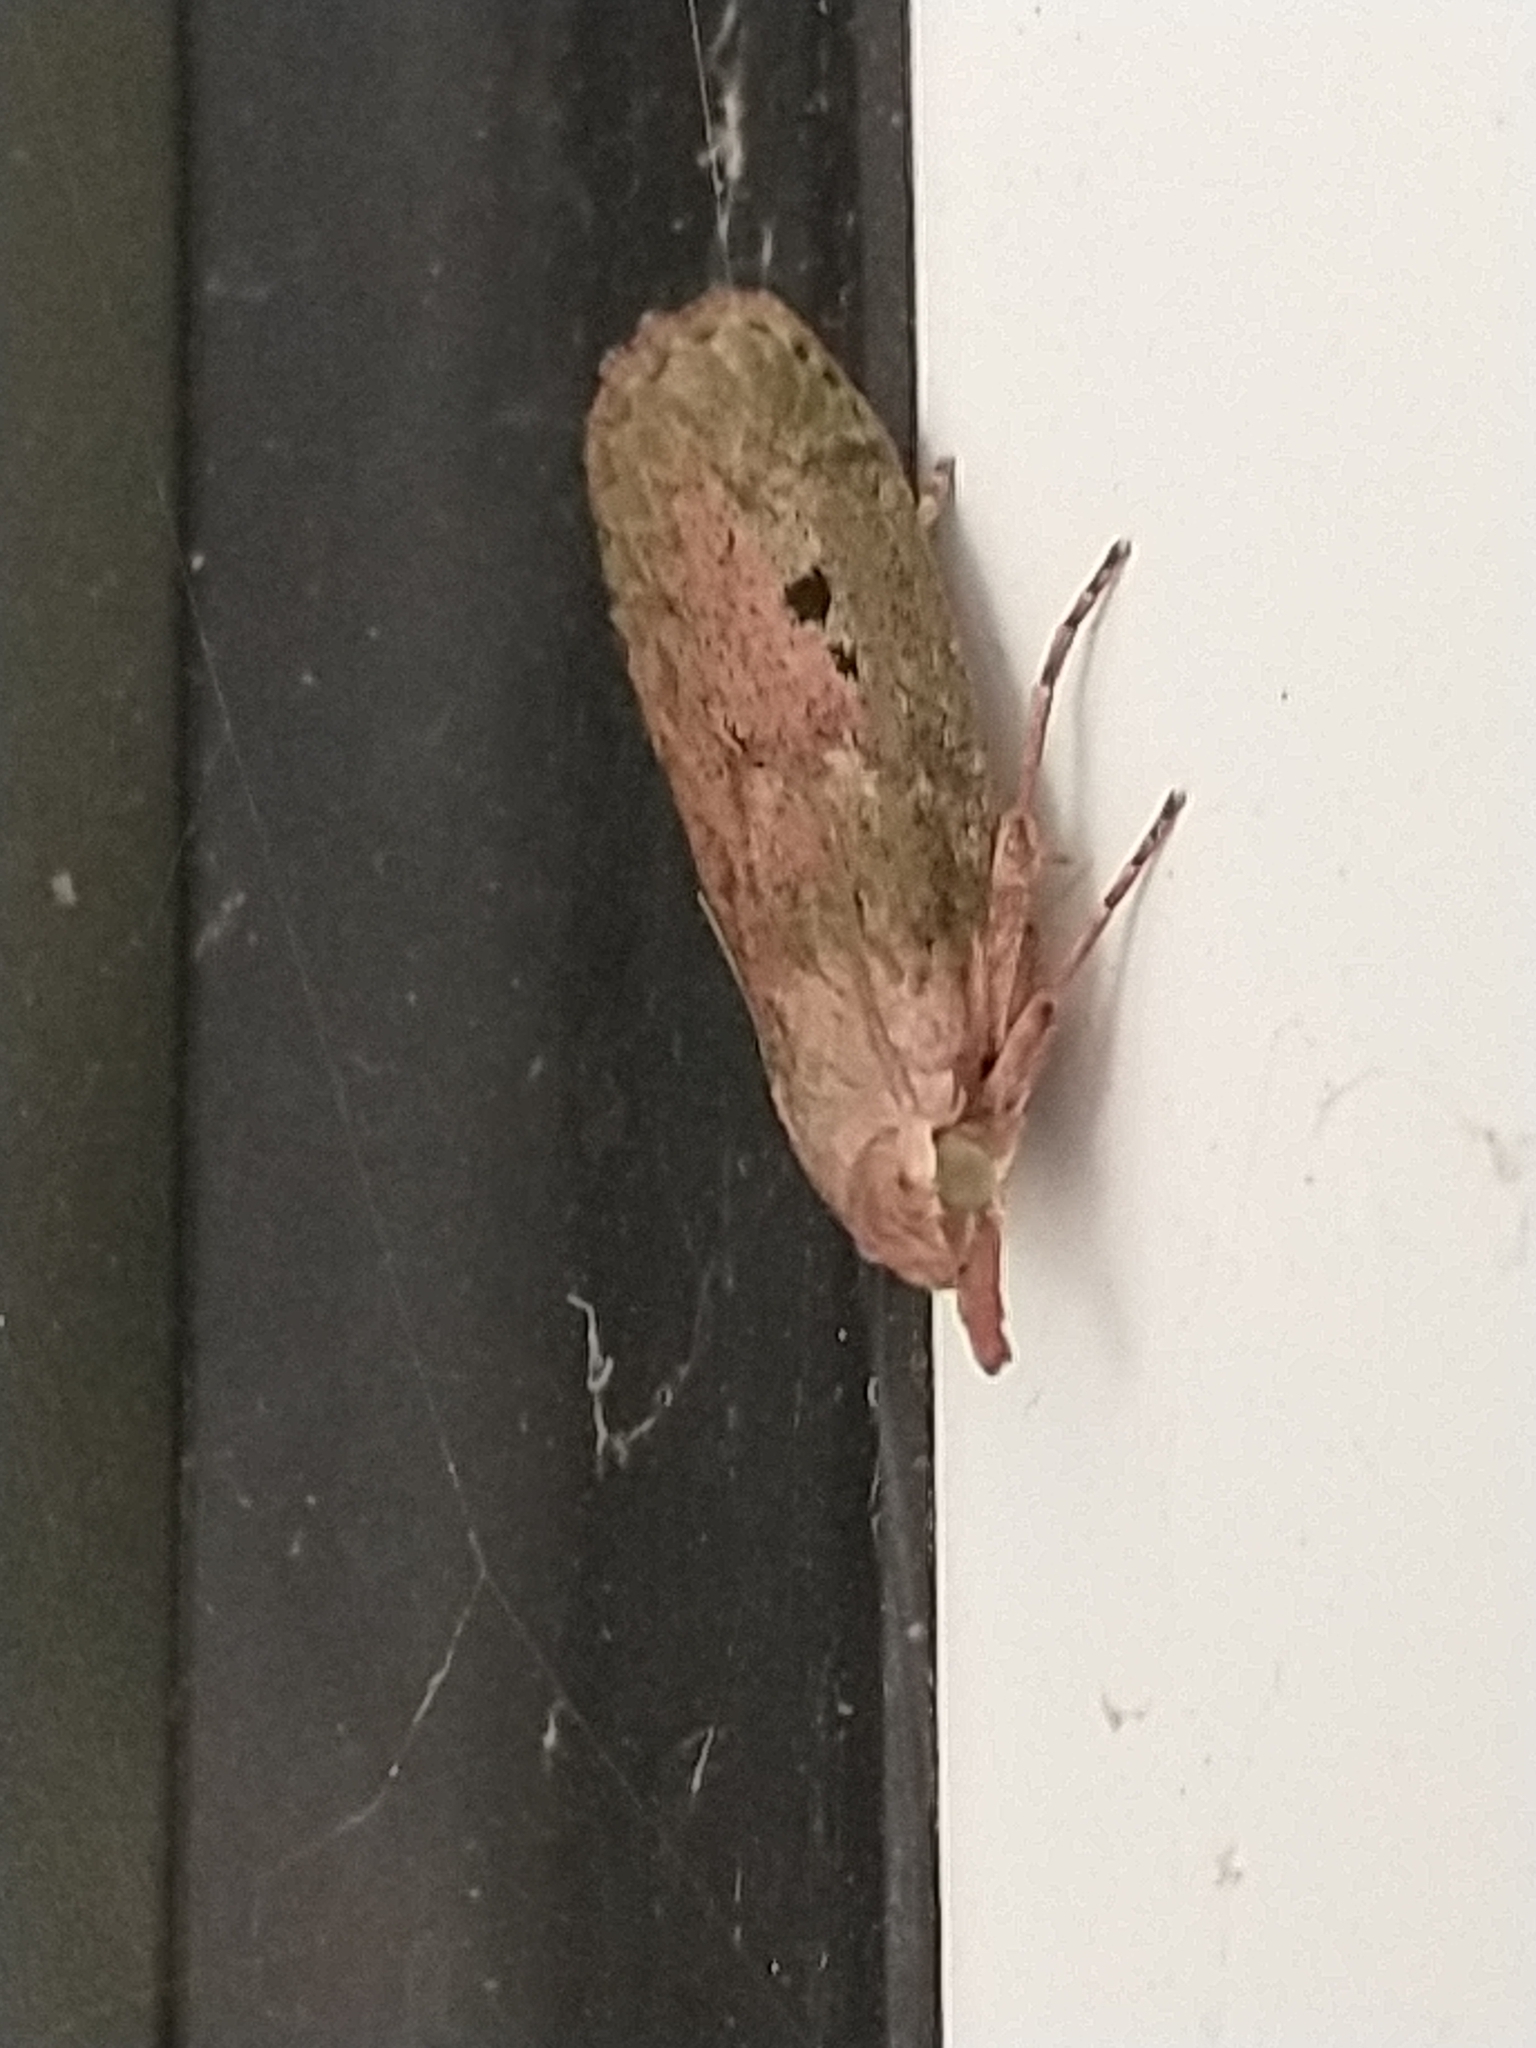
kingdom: Animalia
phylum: Arthropoda
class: Insecta
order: Lepidoptera
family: Pyralidae
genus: Aphomia
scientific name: Aphomia sociella
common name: Bee moth
